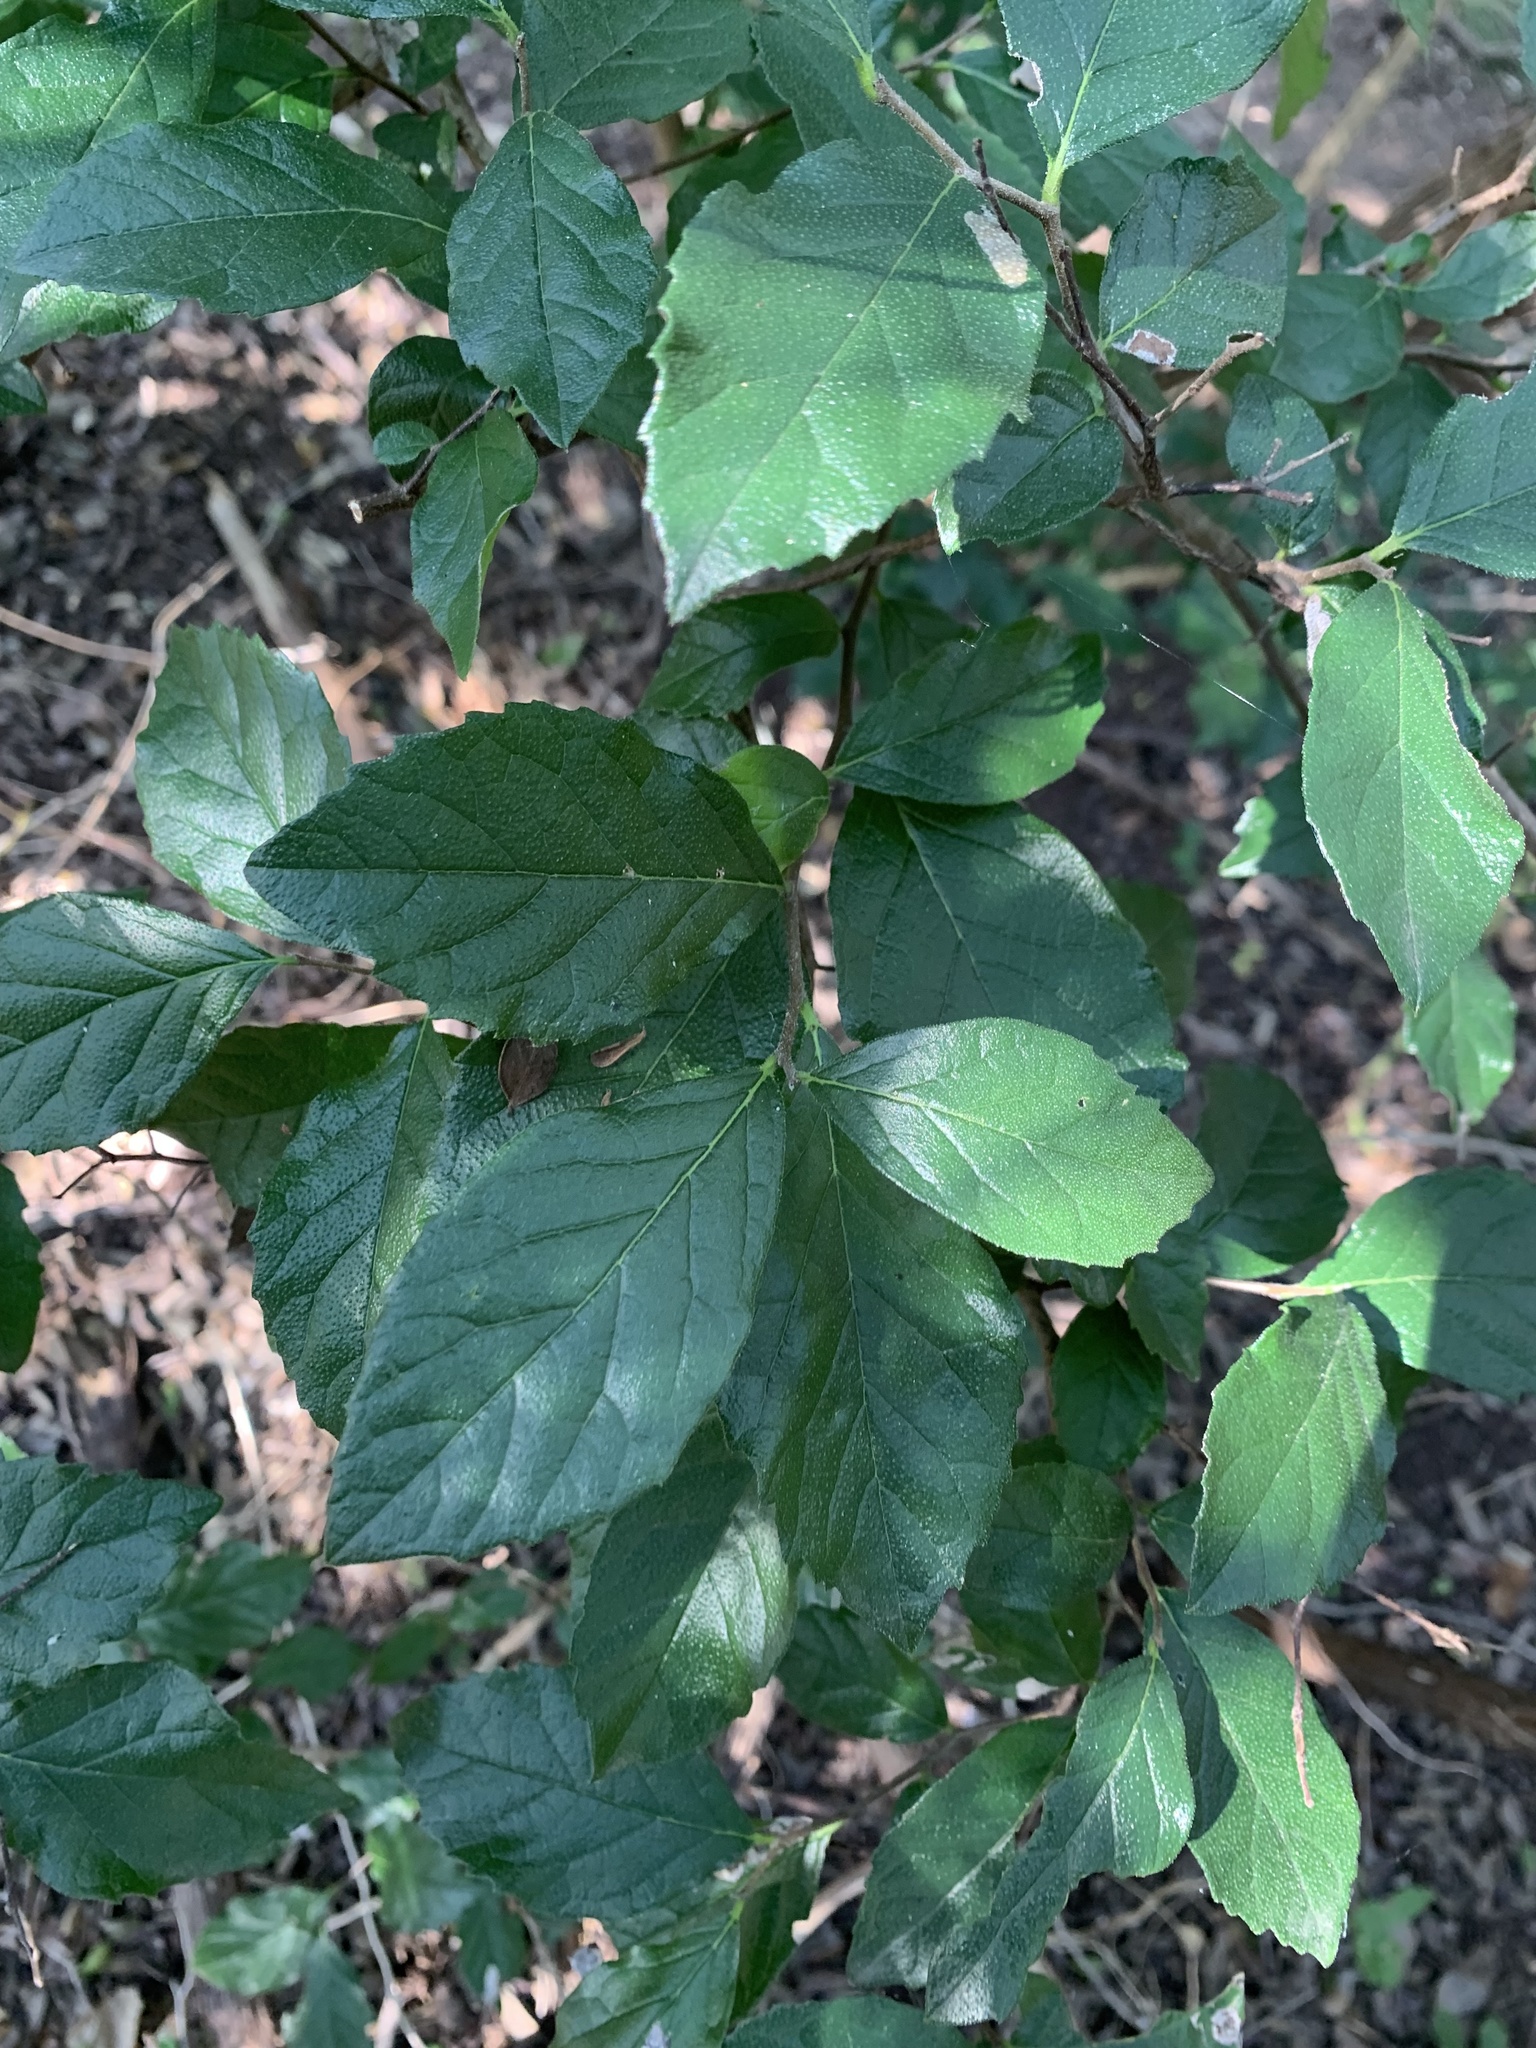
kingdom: Plantae
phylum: Tracheophyta
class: Magnoliopsida
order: Boraginales
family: Ehretiaceae
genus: Ehretia
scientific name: Ehretia anacua
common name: Sugarberry
